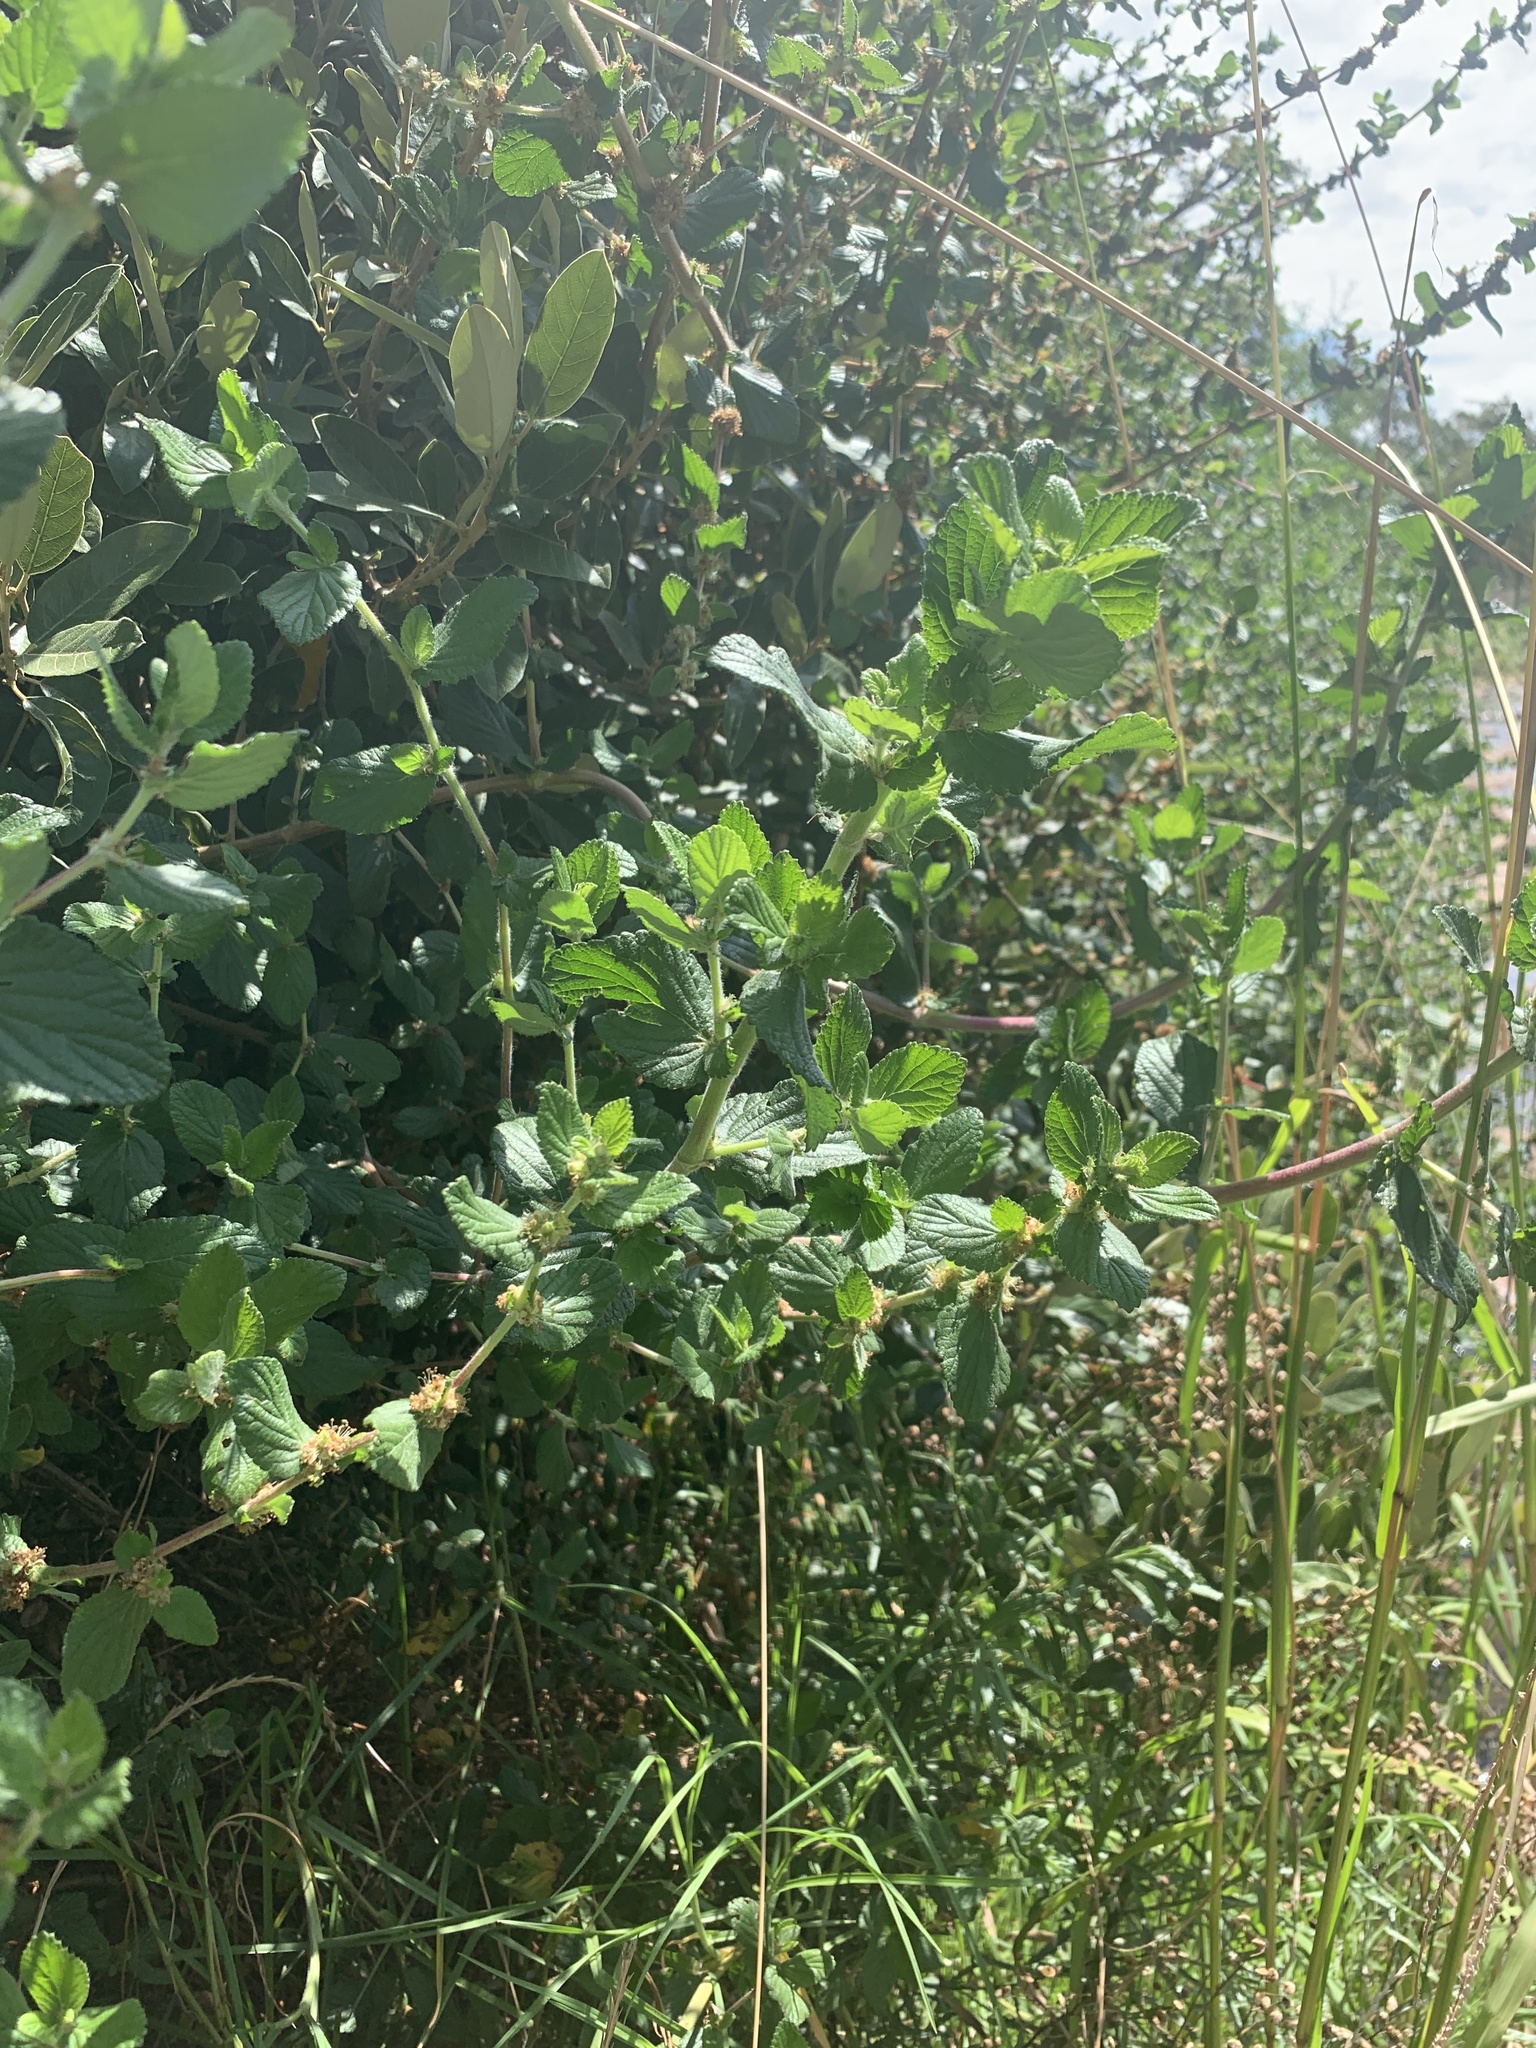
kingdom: Plantae
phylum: Tracheophyta
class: Magnoliopsida
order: Rosales
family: Rosaceae
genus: Cliffortia
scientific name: Cliffortia odorata
